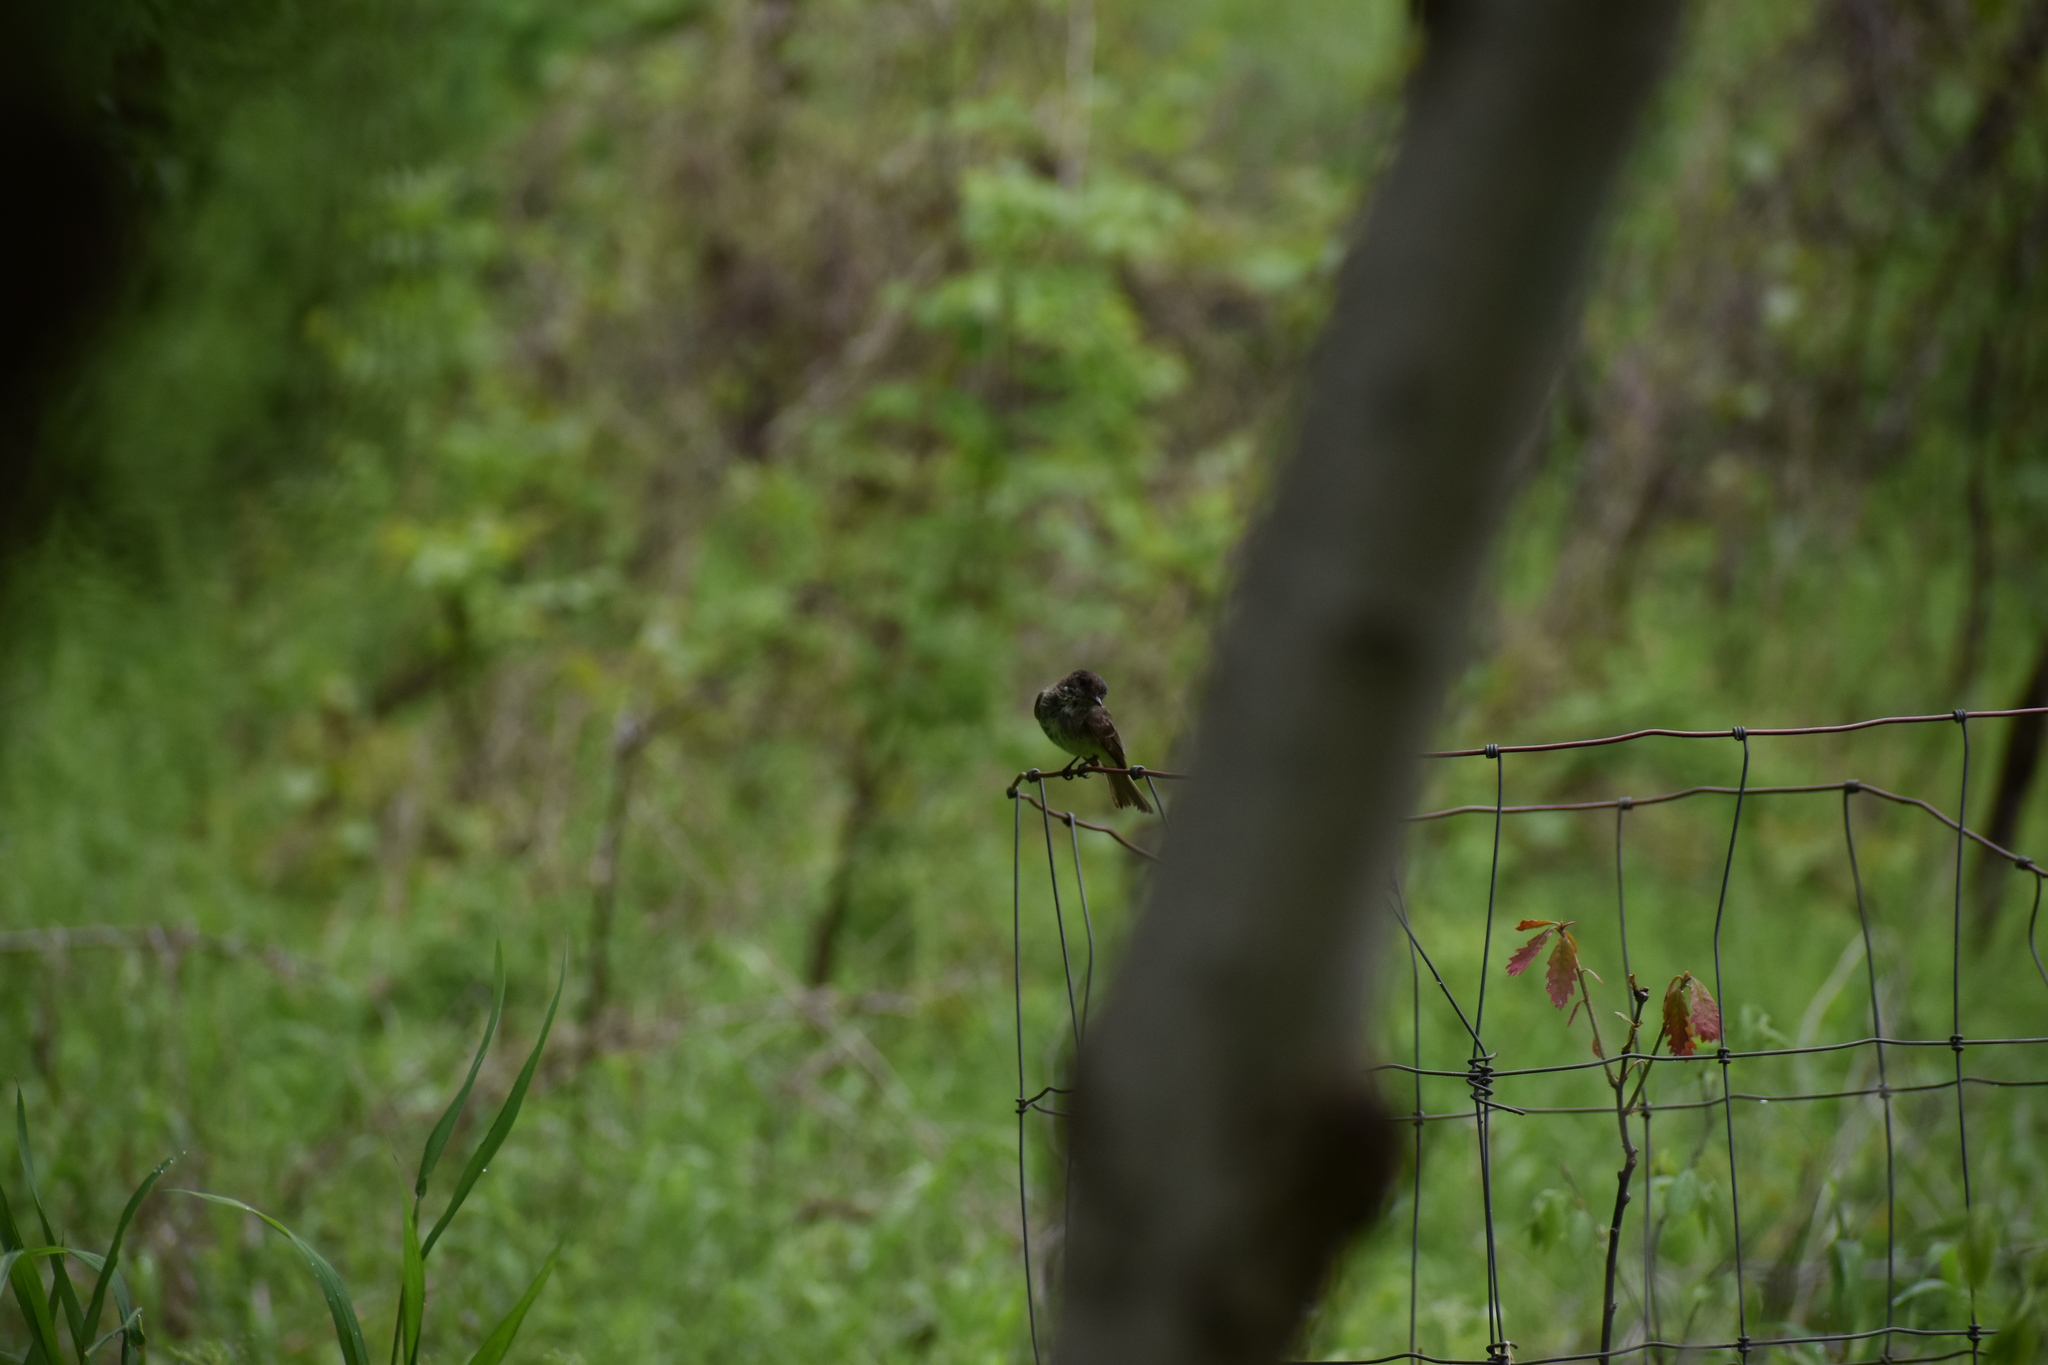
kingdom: Animalia
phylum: Chordata
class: Aves
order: Passeriformes
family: Tyrannidae
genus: Sayornis
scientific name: Sayornis phoebe
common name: Eastern phoebe
